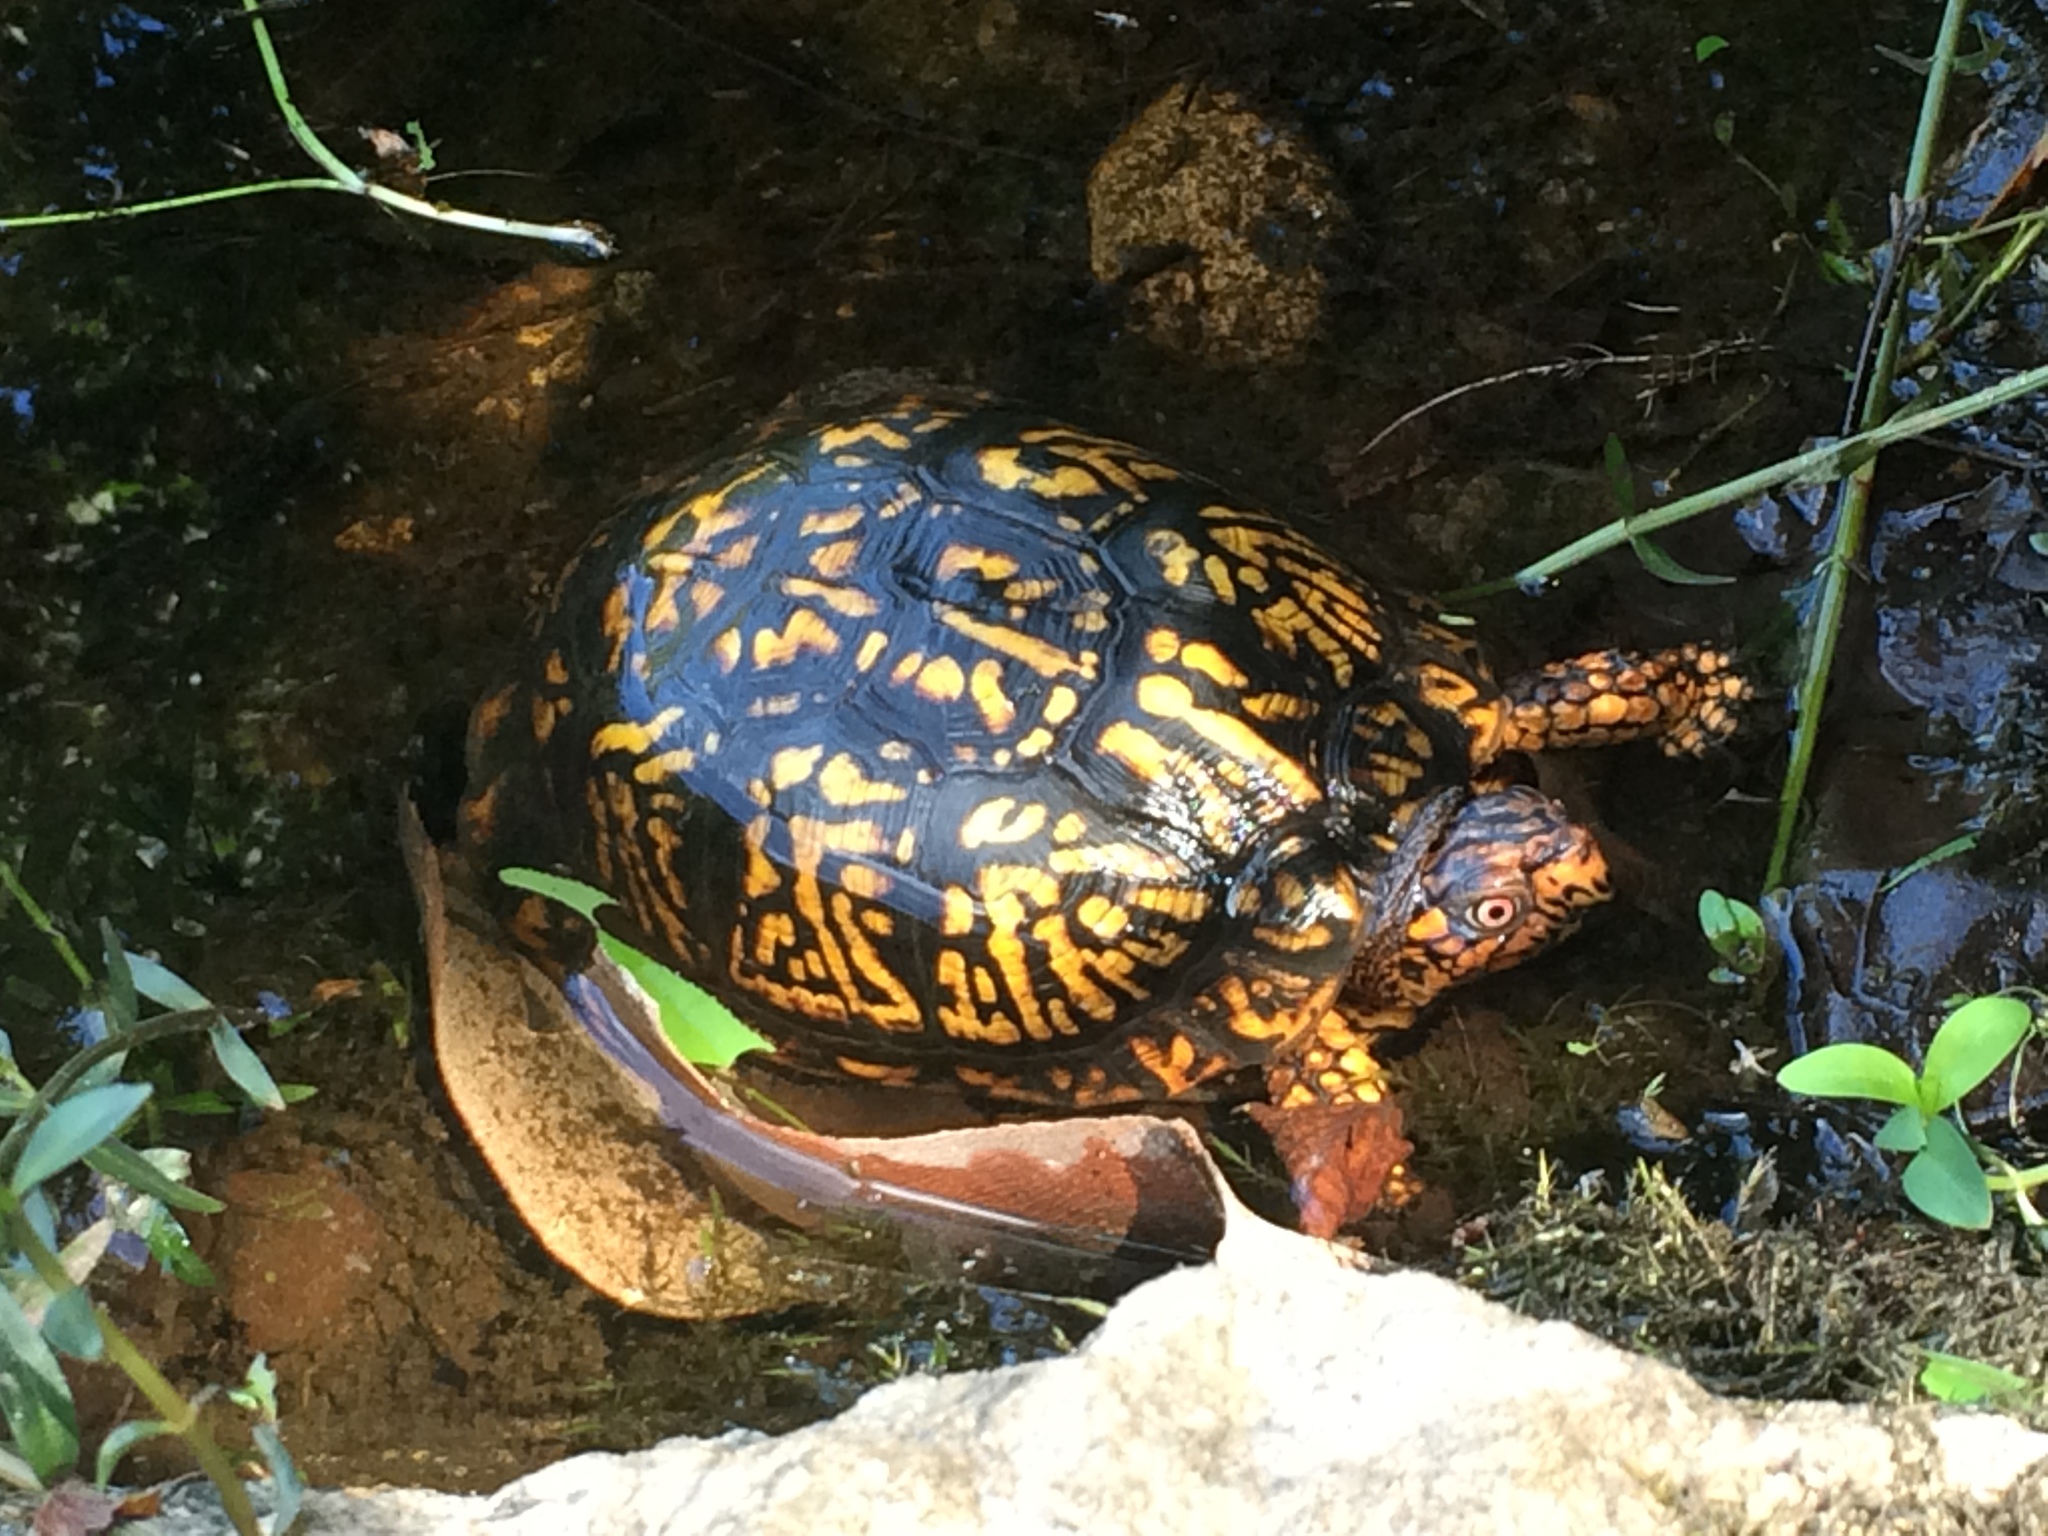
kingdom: Animalia
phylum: Chordata
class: Testudines
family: Emydidae
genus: Terrapene
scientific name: Terrapene carolina
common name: Common box turtle
